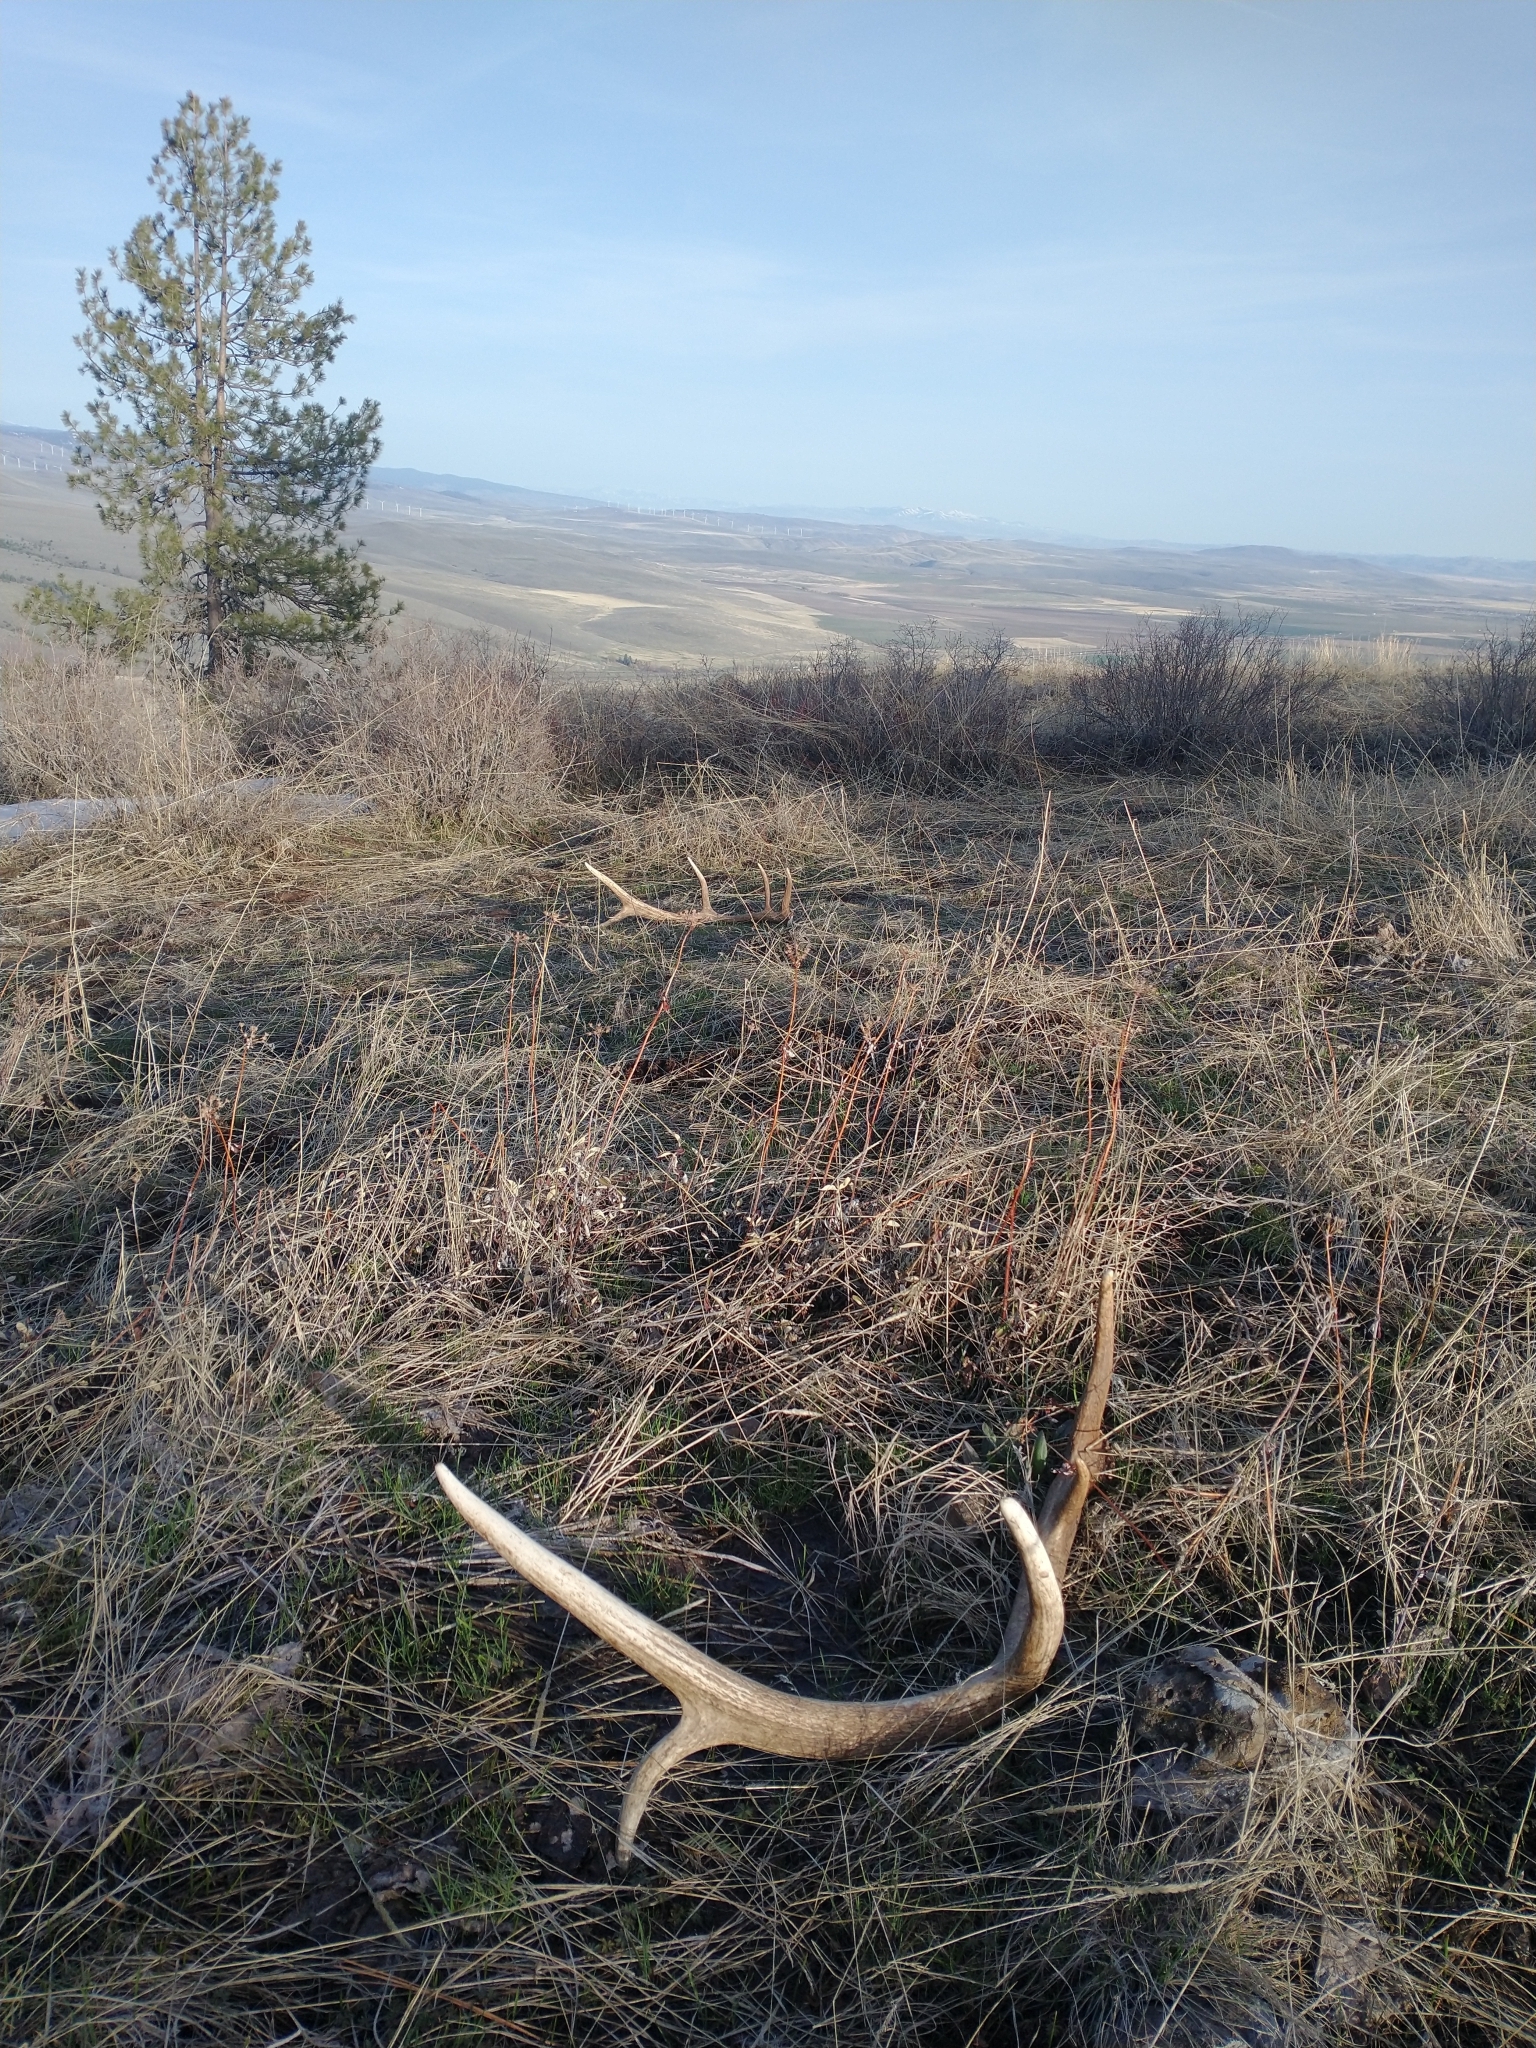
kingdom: Animalia
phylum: Chordata
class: Mammalia
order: Artiodactyla
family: Cervidae
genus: Cervus
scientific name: Cervus elaphus
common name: Red deer
